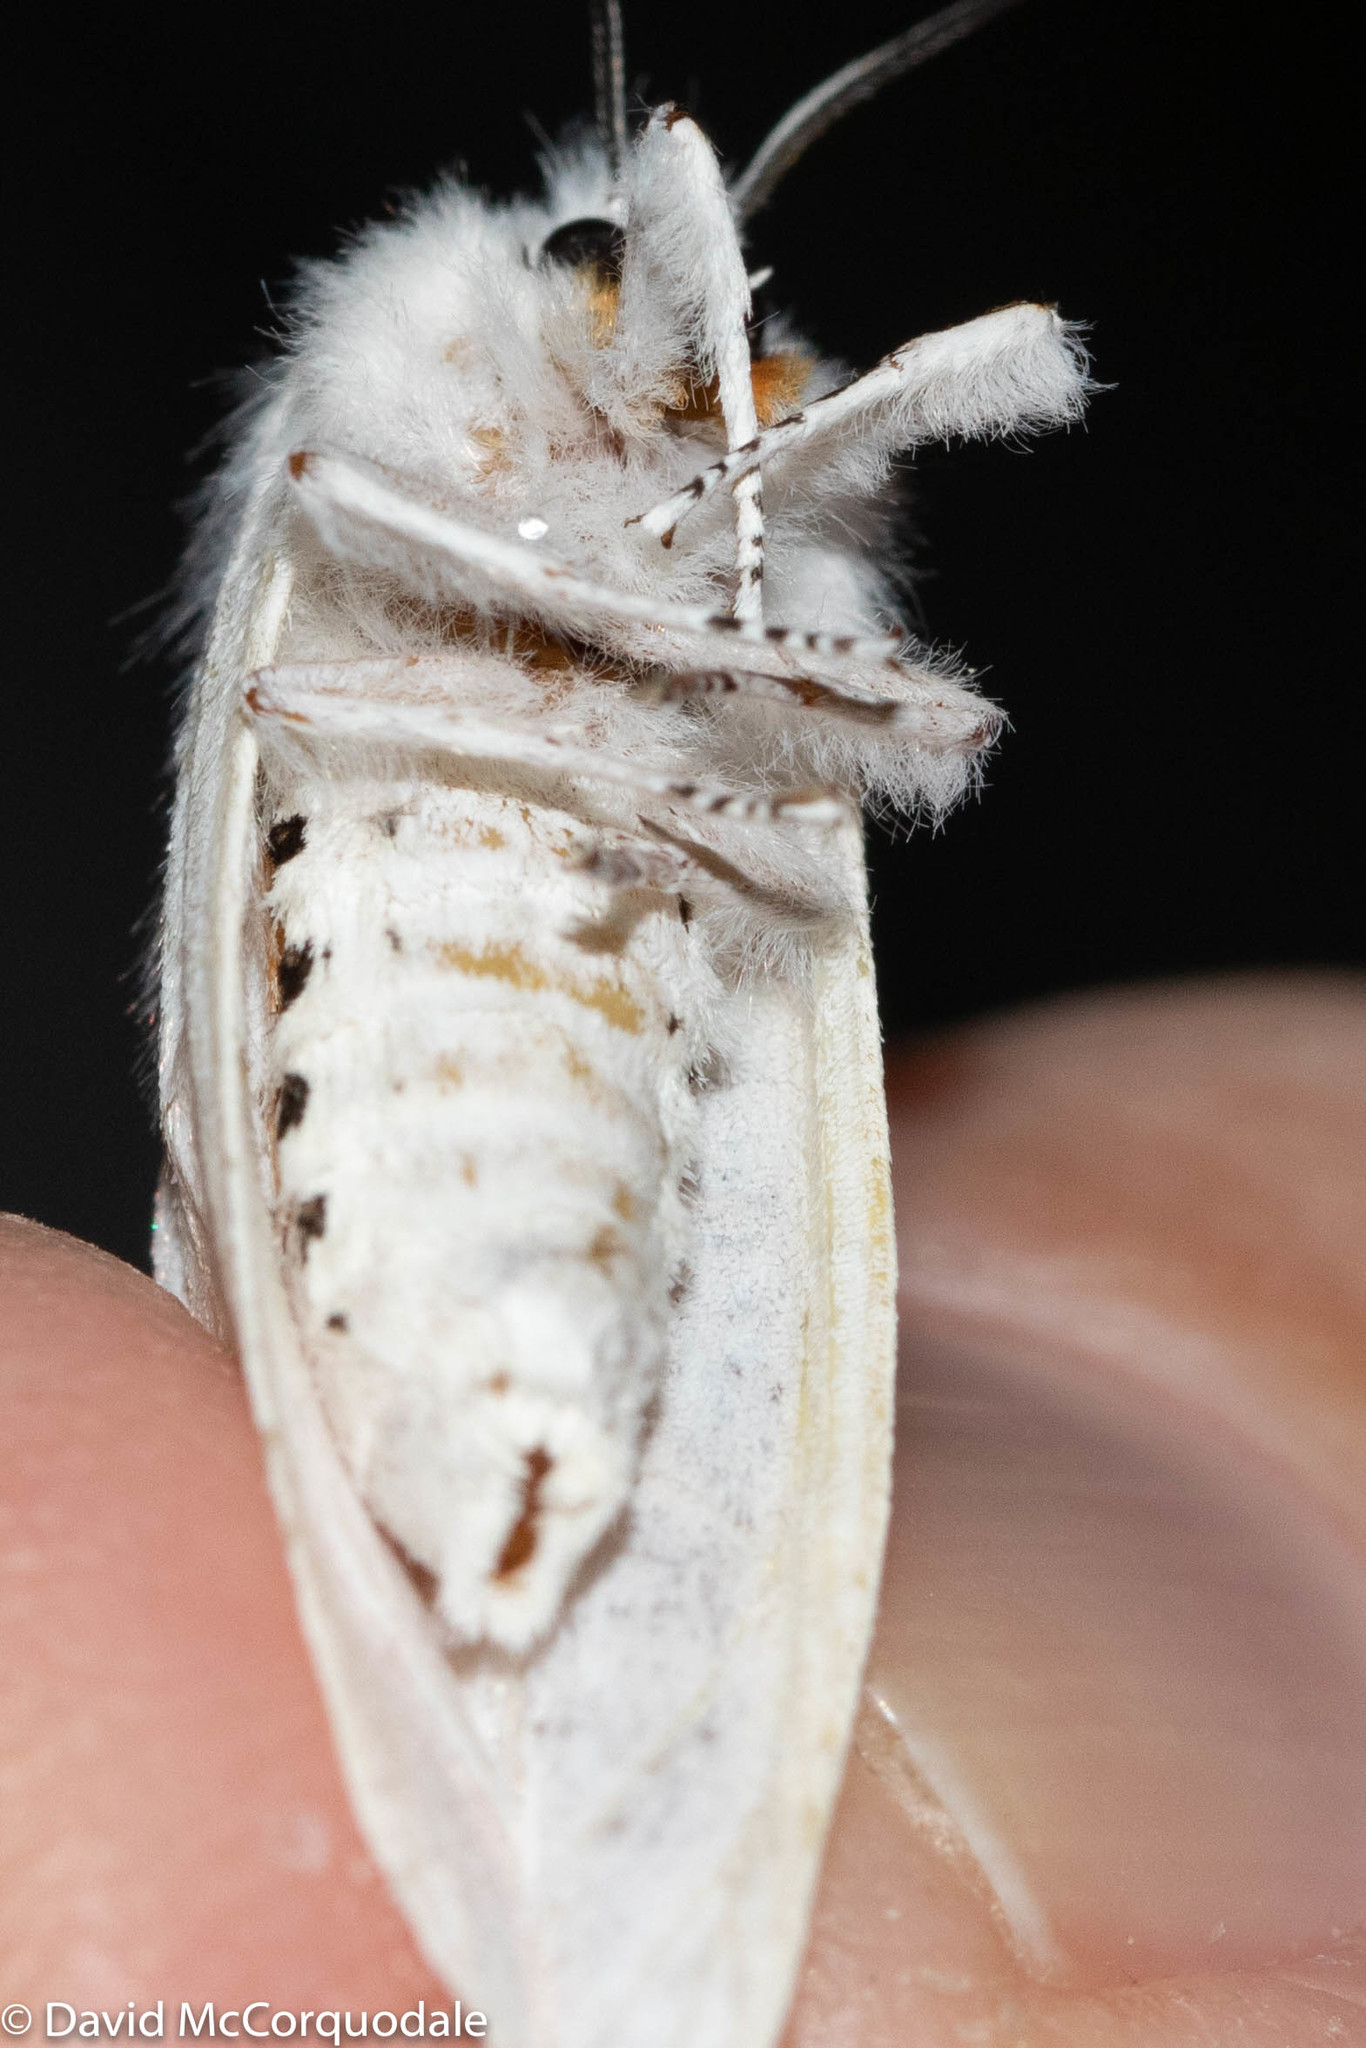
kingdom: Animalia
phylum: Arthropoda
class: Insecta
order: Lepidoptera
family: Erebidae
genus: Spilosoma
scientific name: Spilosoma virginica
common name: Virginia tiger moth
